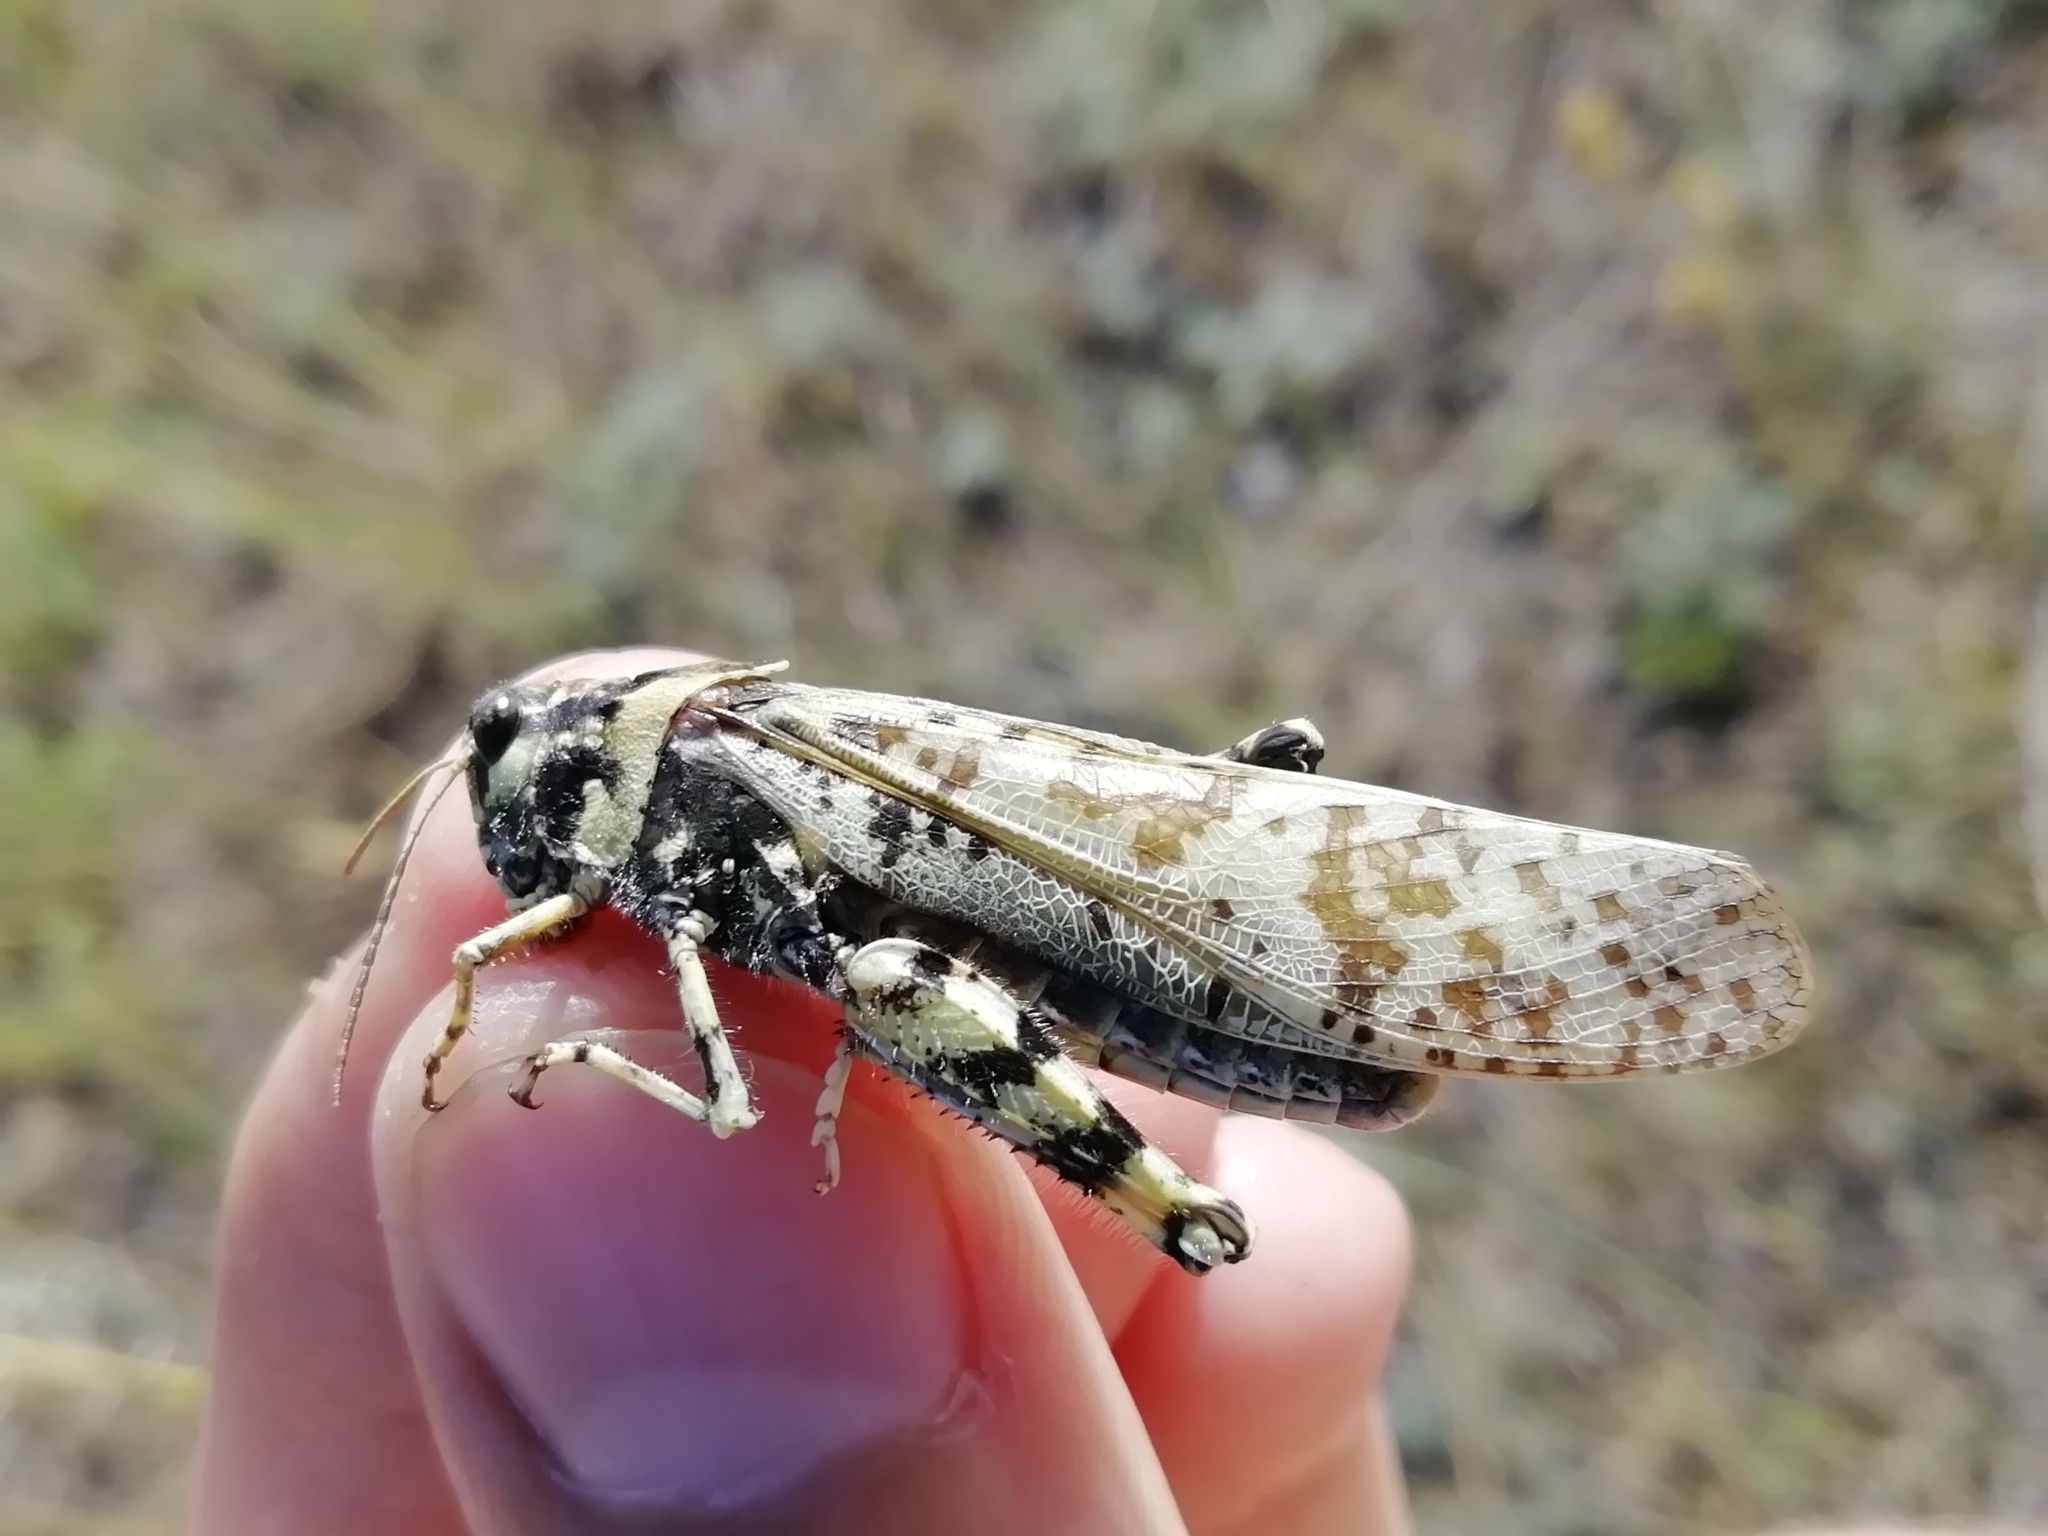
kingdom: Animalia
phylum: Arthropoda
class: Insecta
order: Orthoptera
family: Acrididae
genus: Angaracris
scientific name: Angaracris barabensis
